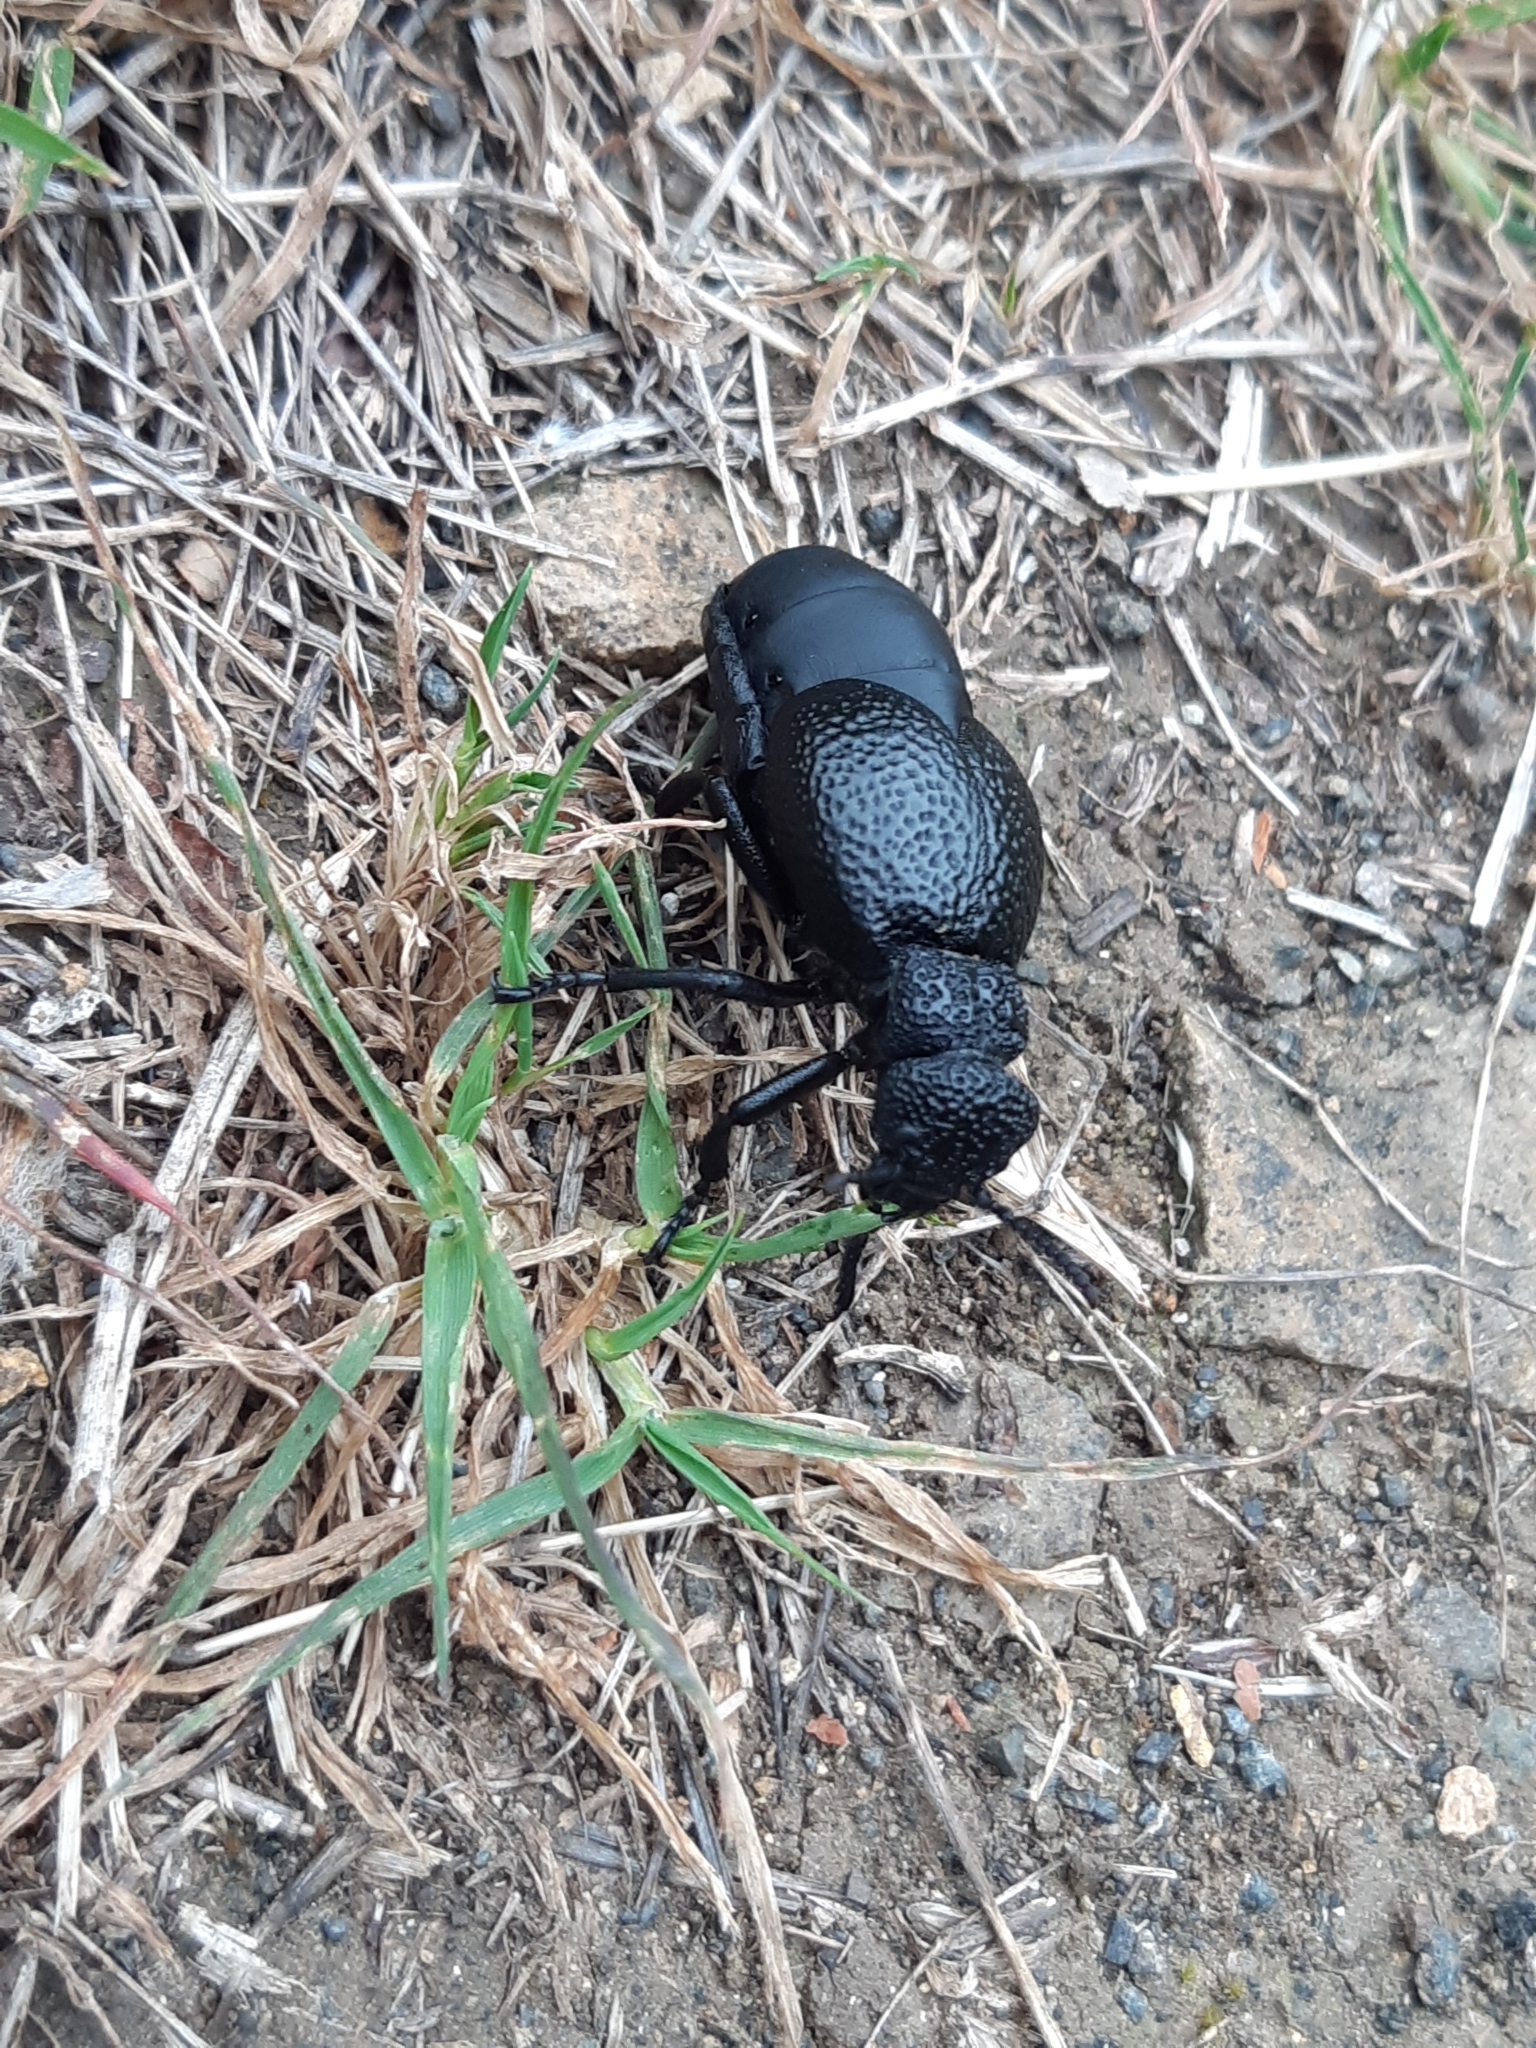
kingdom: Animalia
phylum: Arthropoda
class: Insecta
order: Coleoptera
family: Meloidae
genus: Meloe
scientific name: Meloe tuccius
